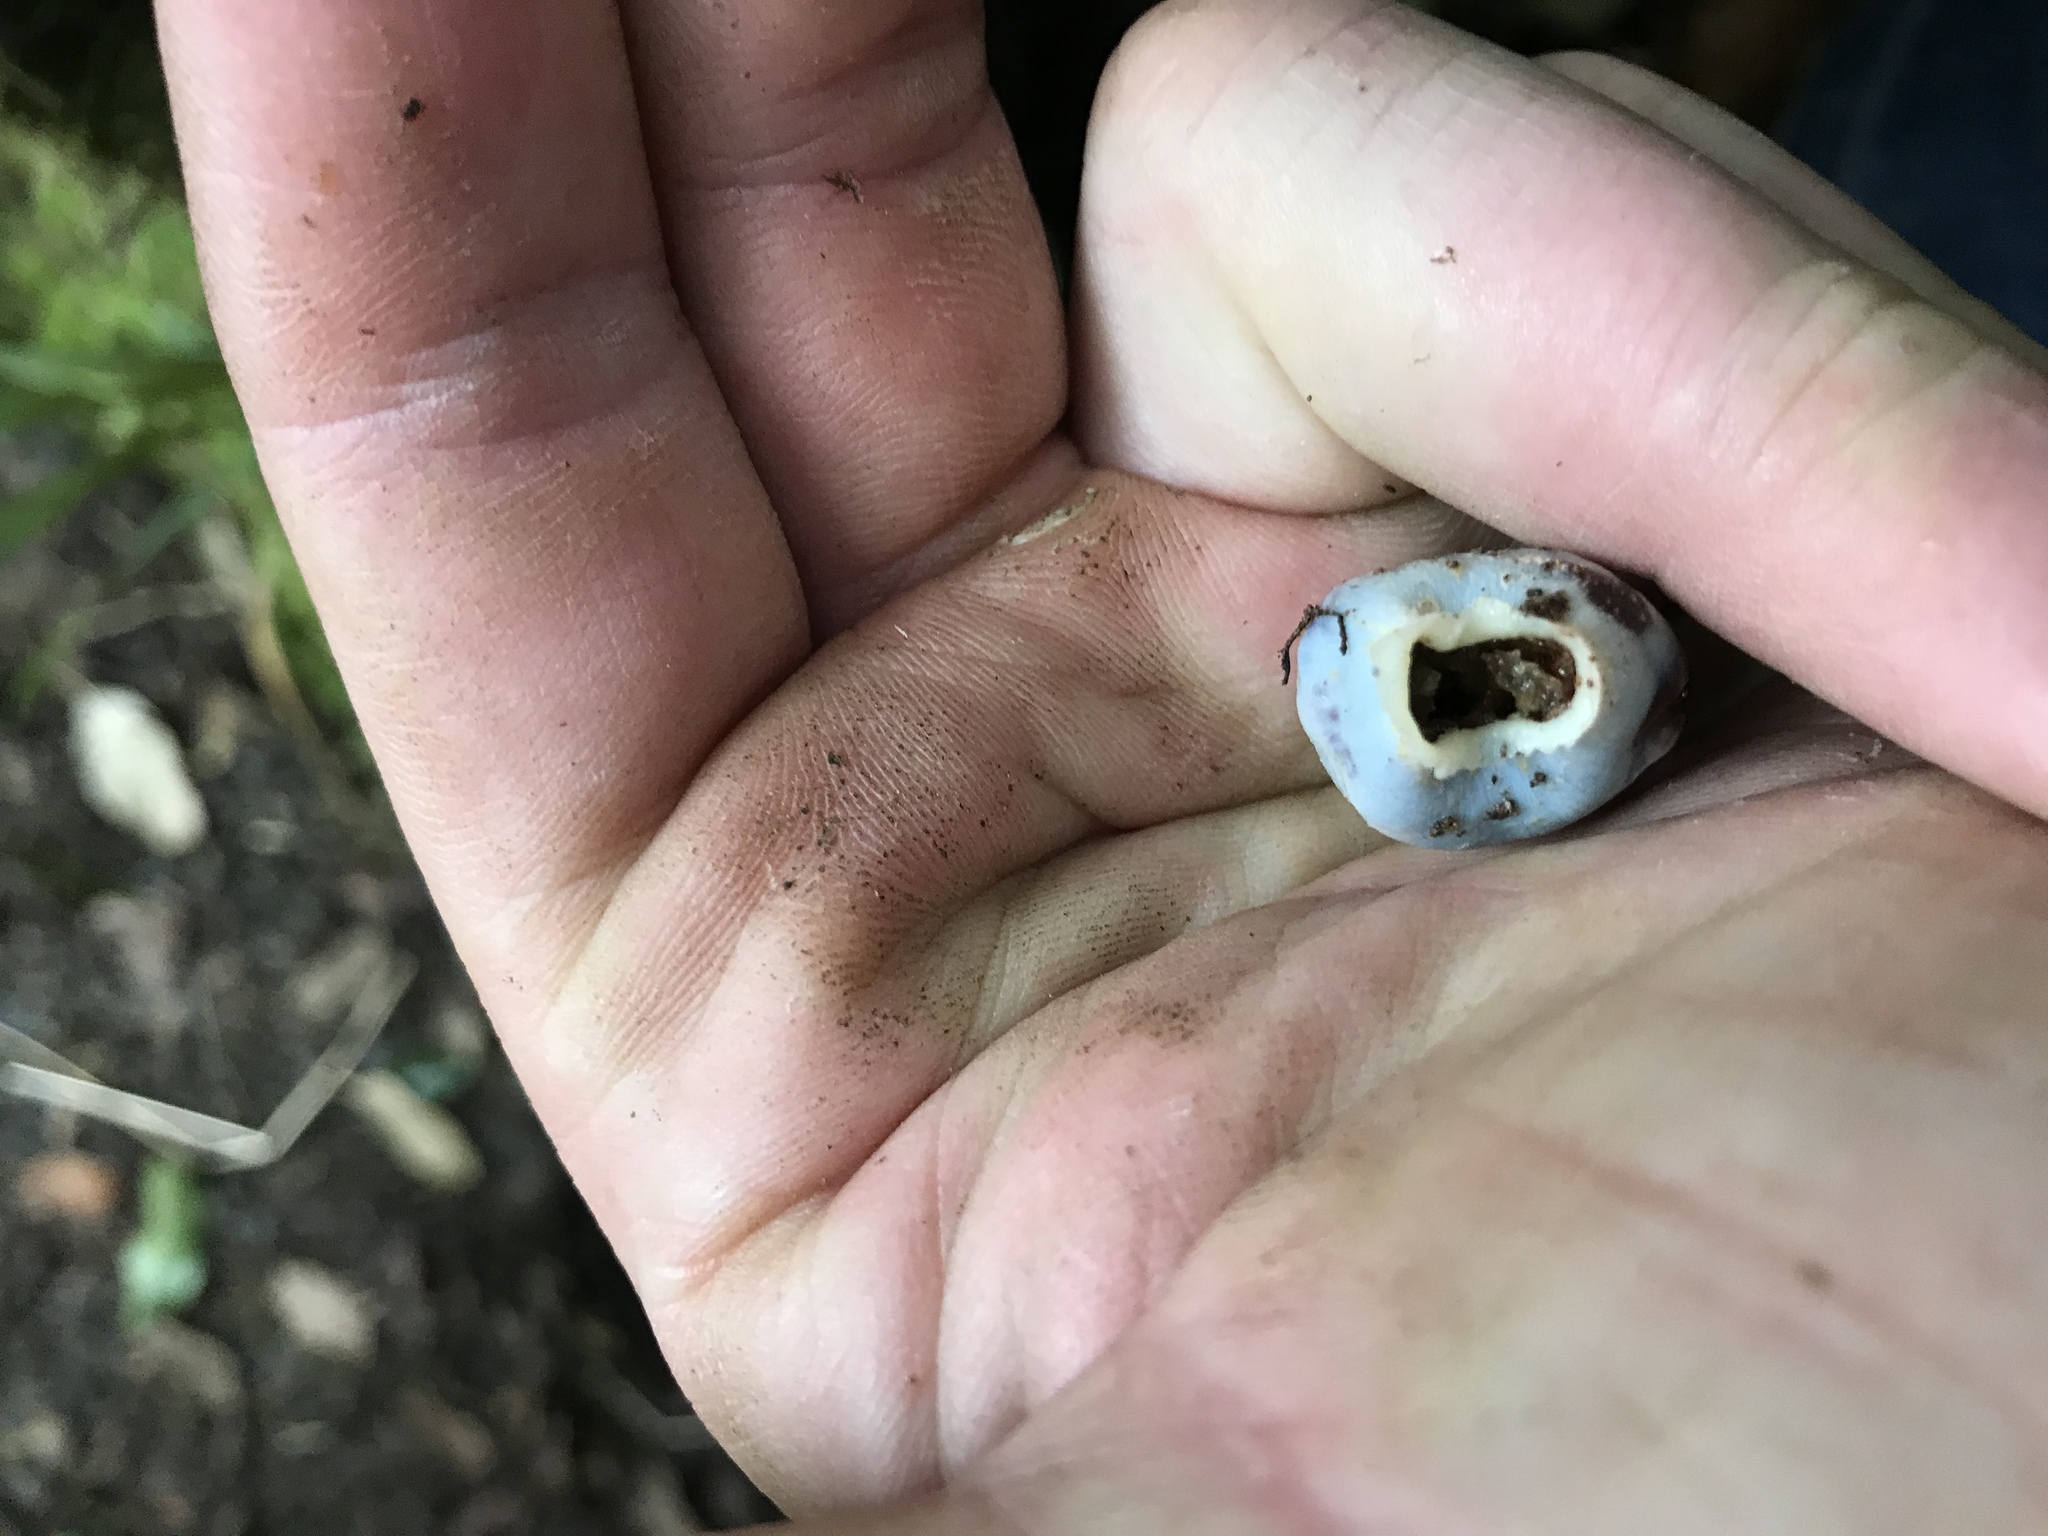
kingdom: Fungi
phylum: Basidiomycota
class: Agaricomycetes
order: Agaricales
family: Agaricaceae
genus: Clavogaster
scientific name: Clavogaster virescens
